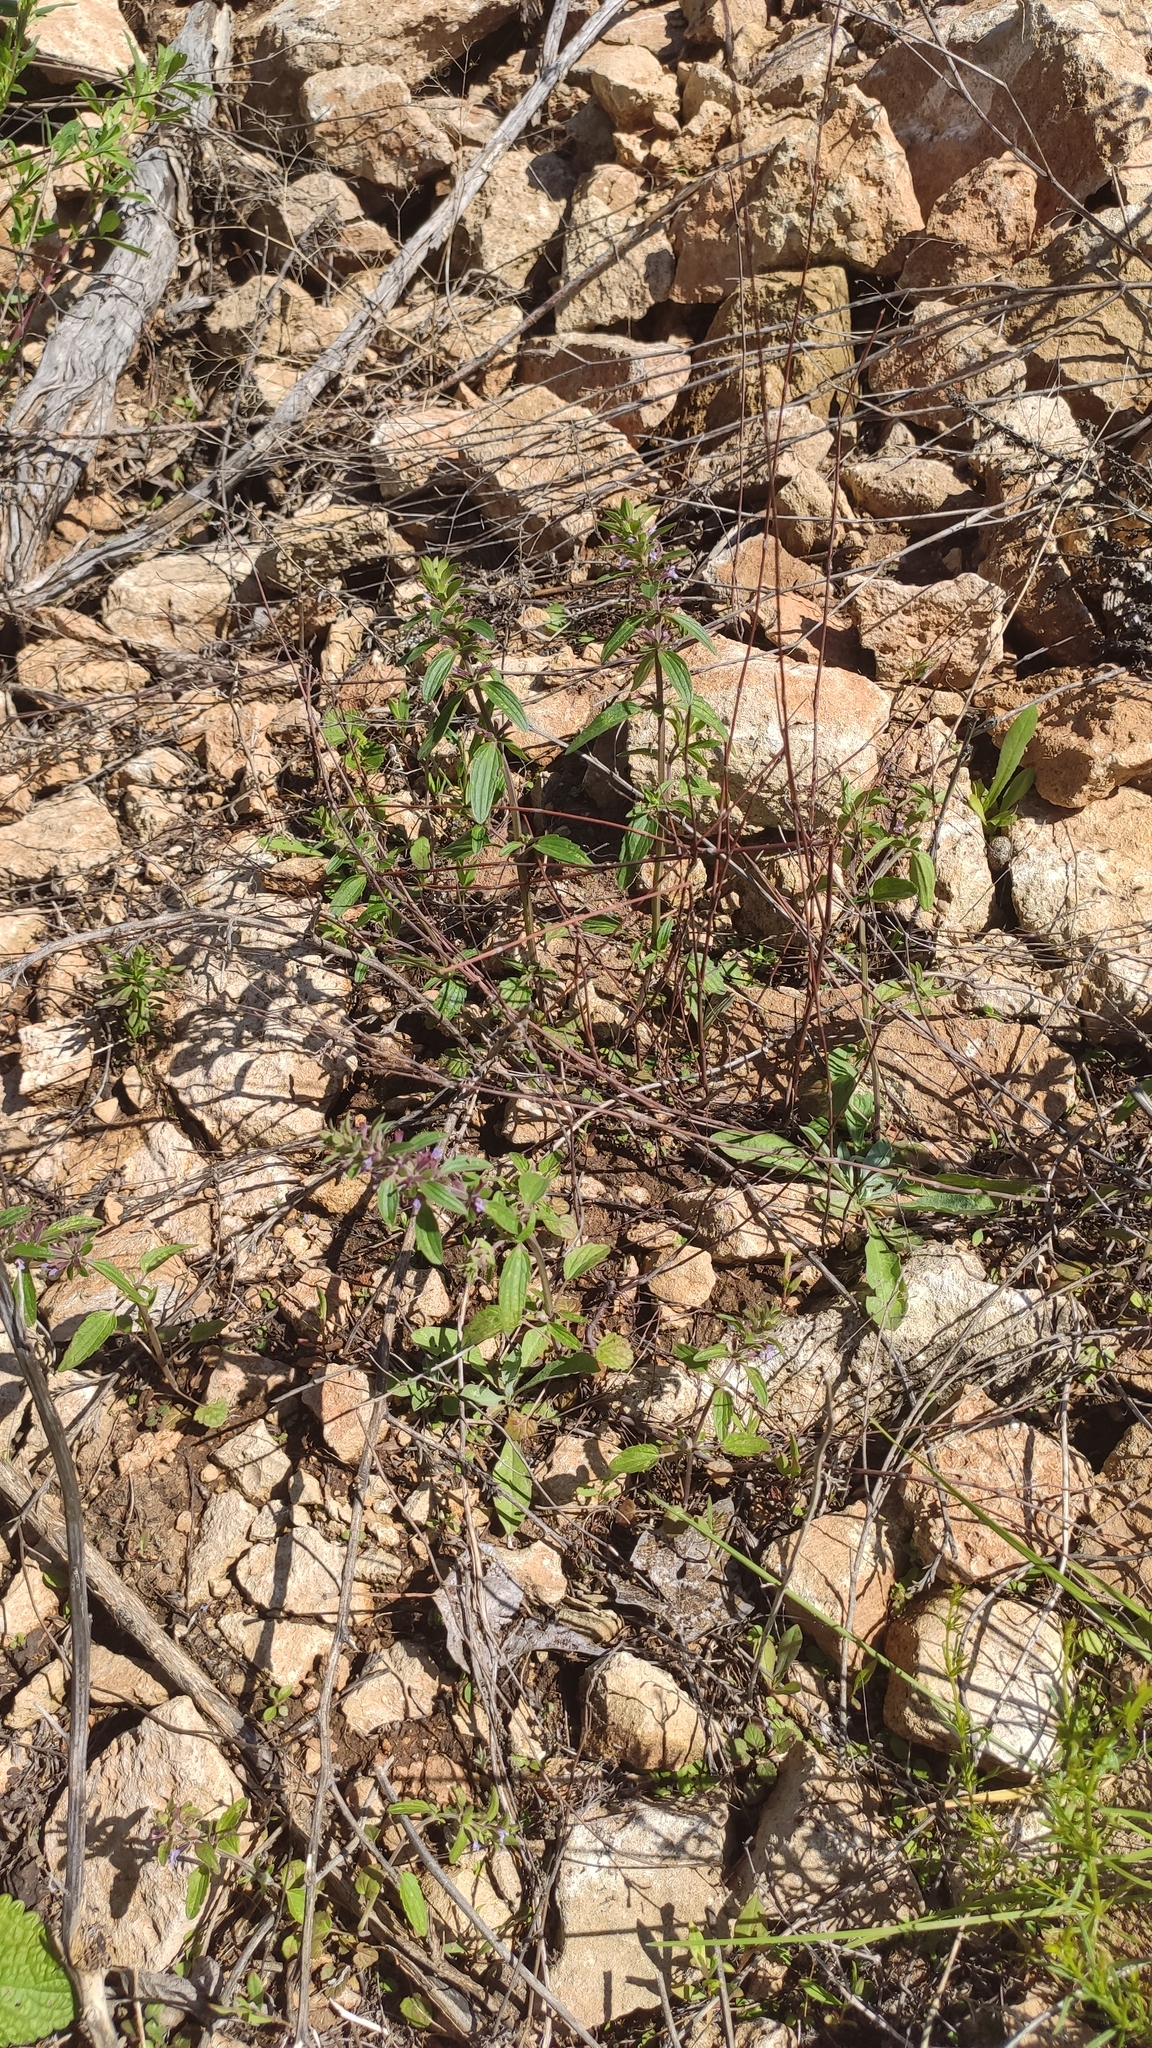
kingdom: Plantae
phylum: Tracheophyta
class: Magnoliopsida
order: Lamiales
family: Lamiaceae
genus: Dracocephalum
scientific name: Dracocephalum thymiflorum
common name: Thymeleaf dragonhead
